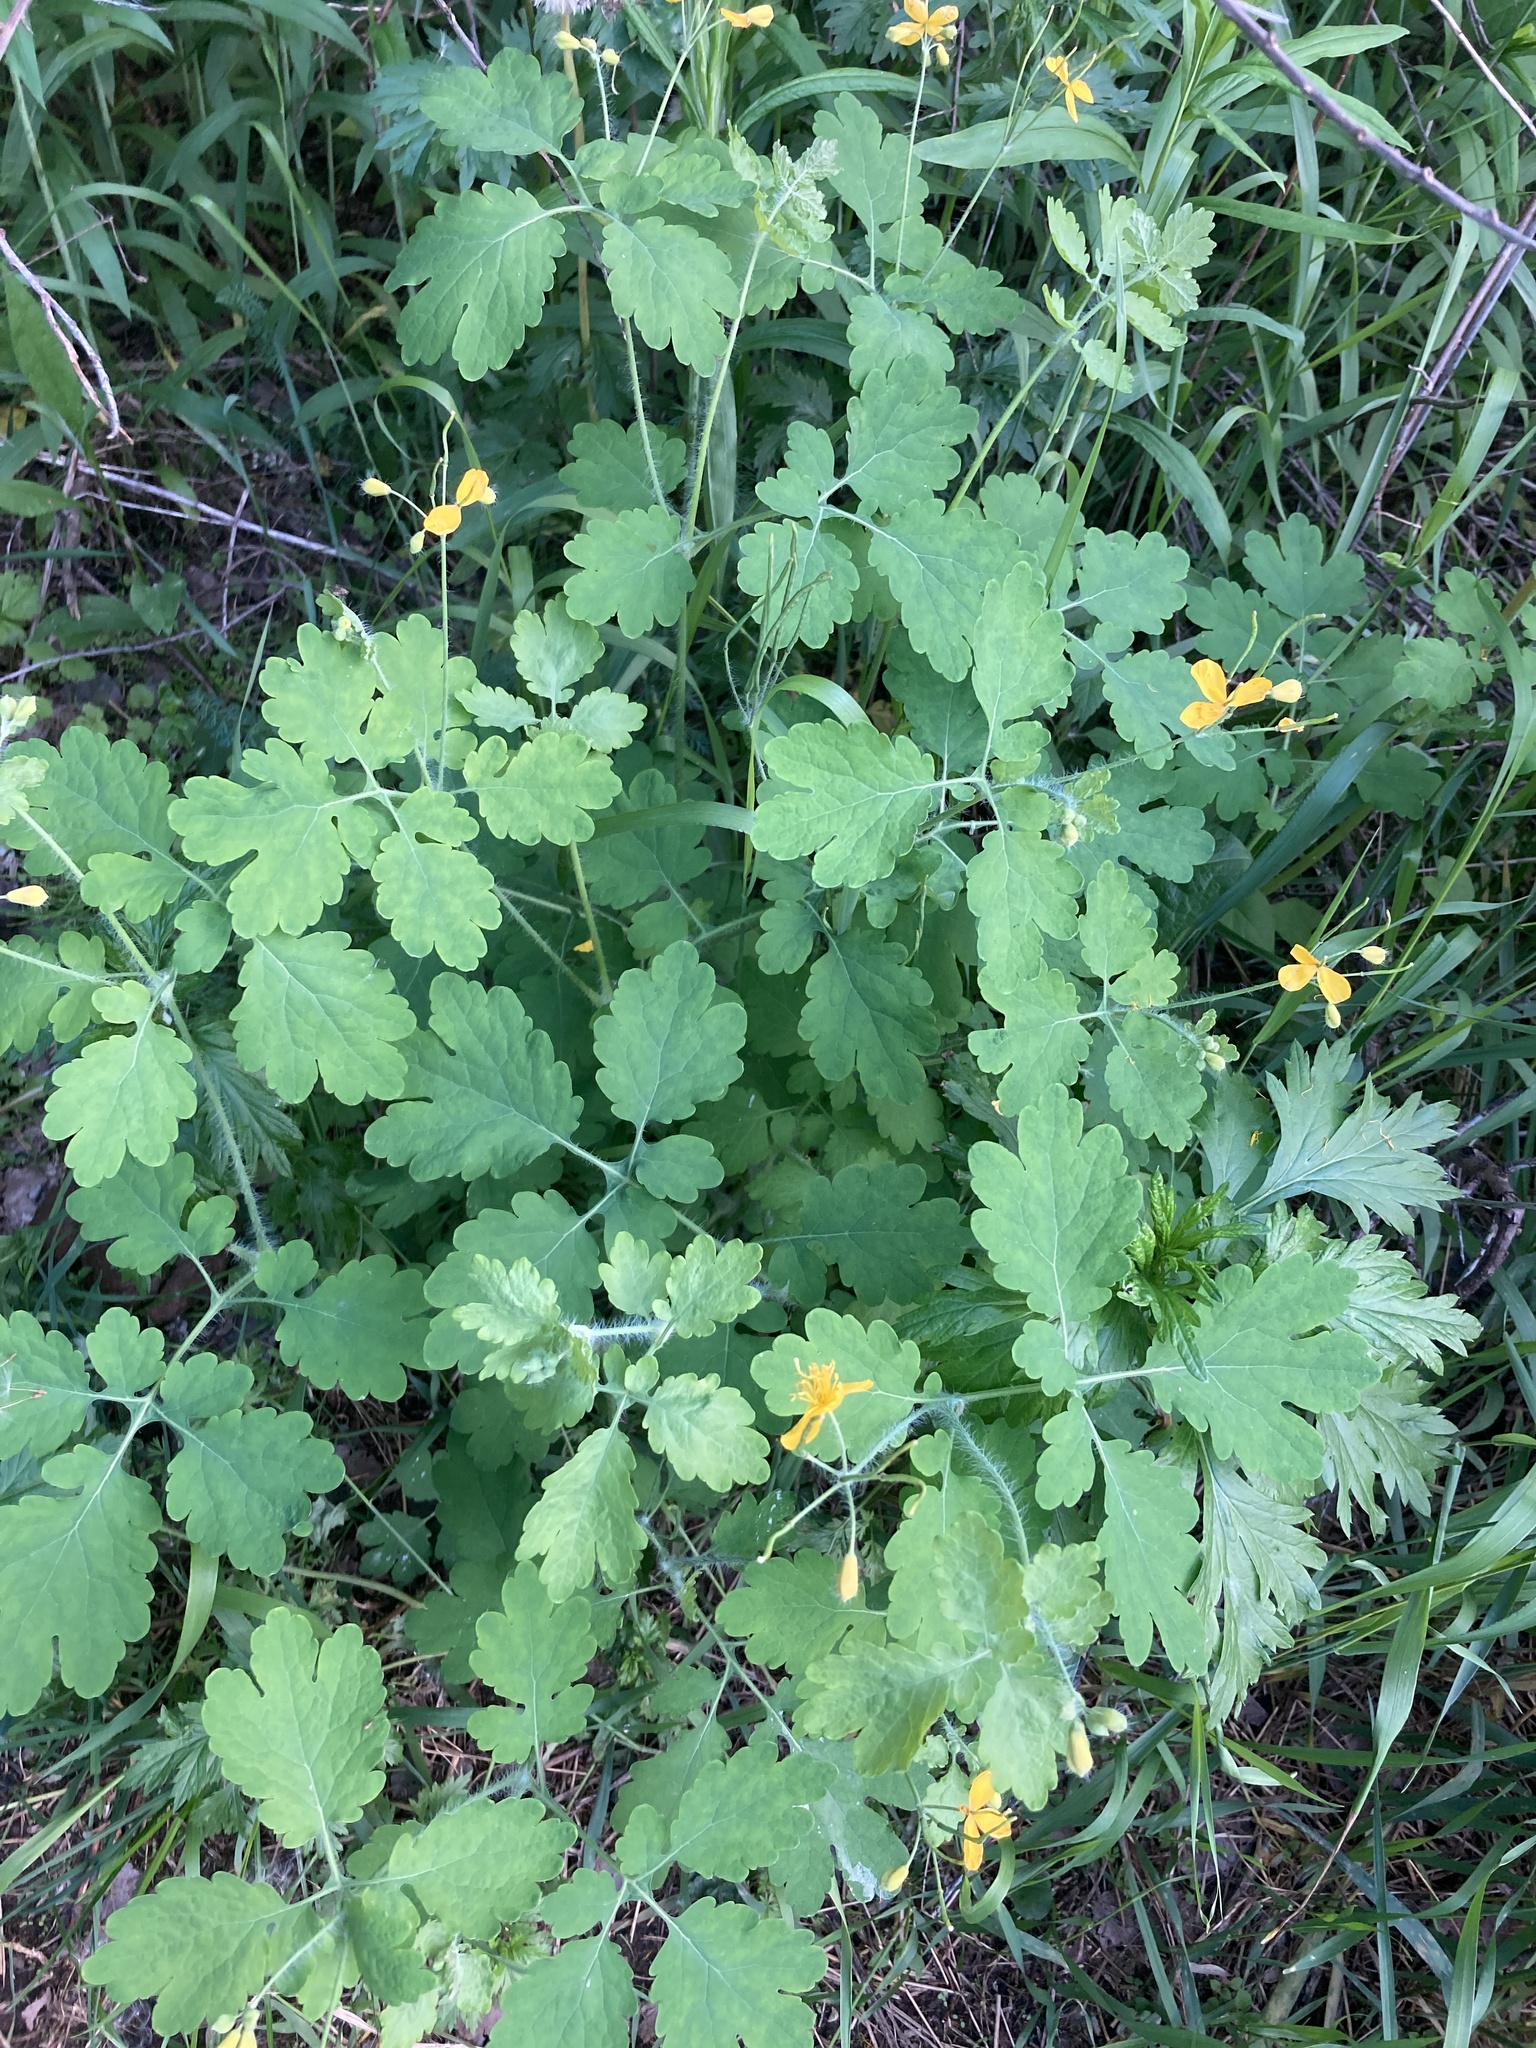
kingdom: Plantae
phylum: Tracheophyta
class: Magnoliopsida
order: Ranunculales
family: Papaveraceae
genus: Chelidonium
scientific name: Chelidonium majus
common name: Greater celandine
